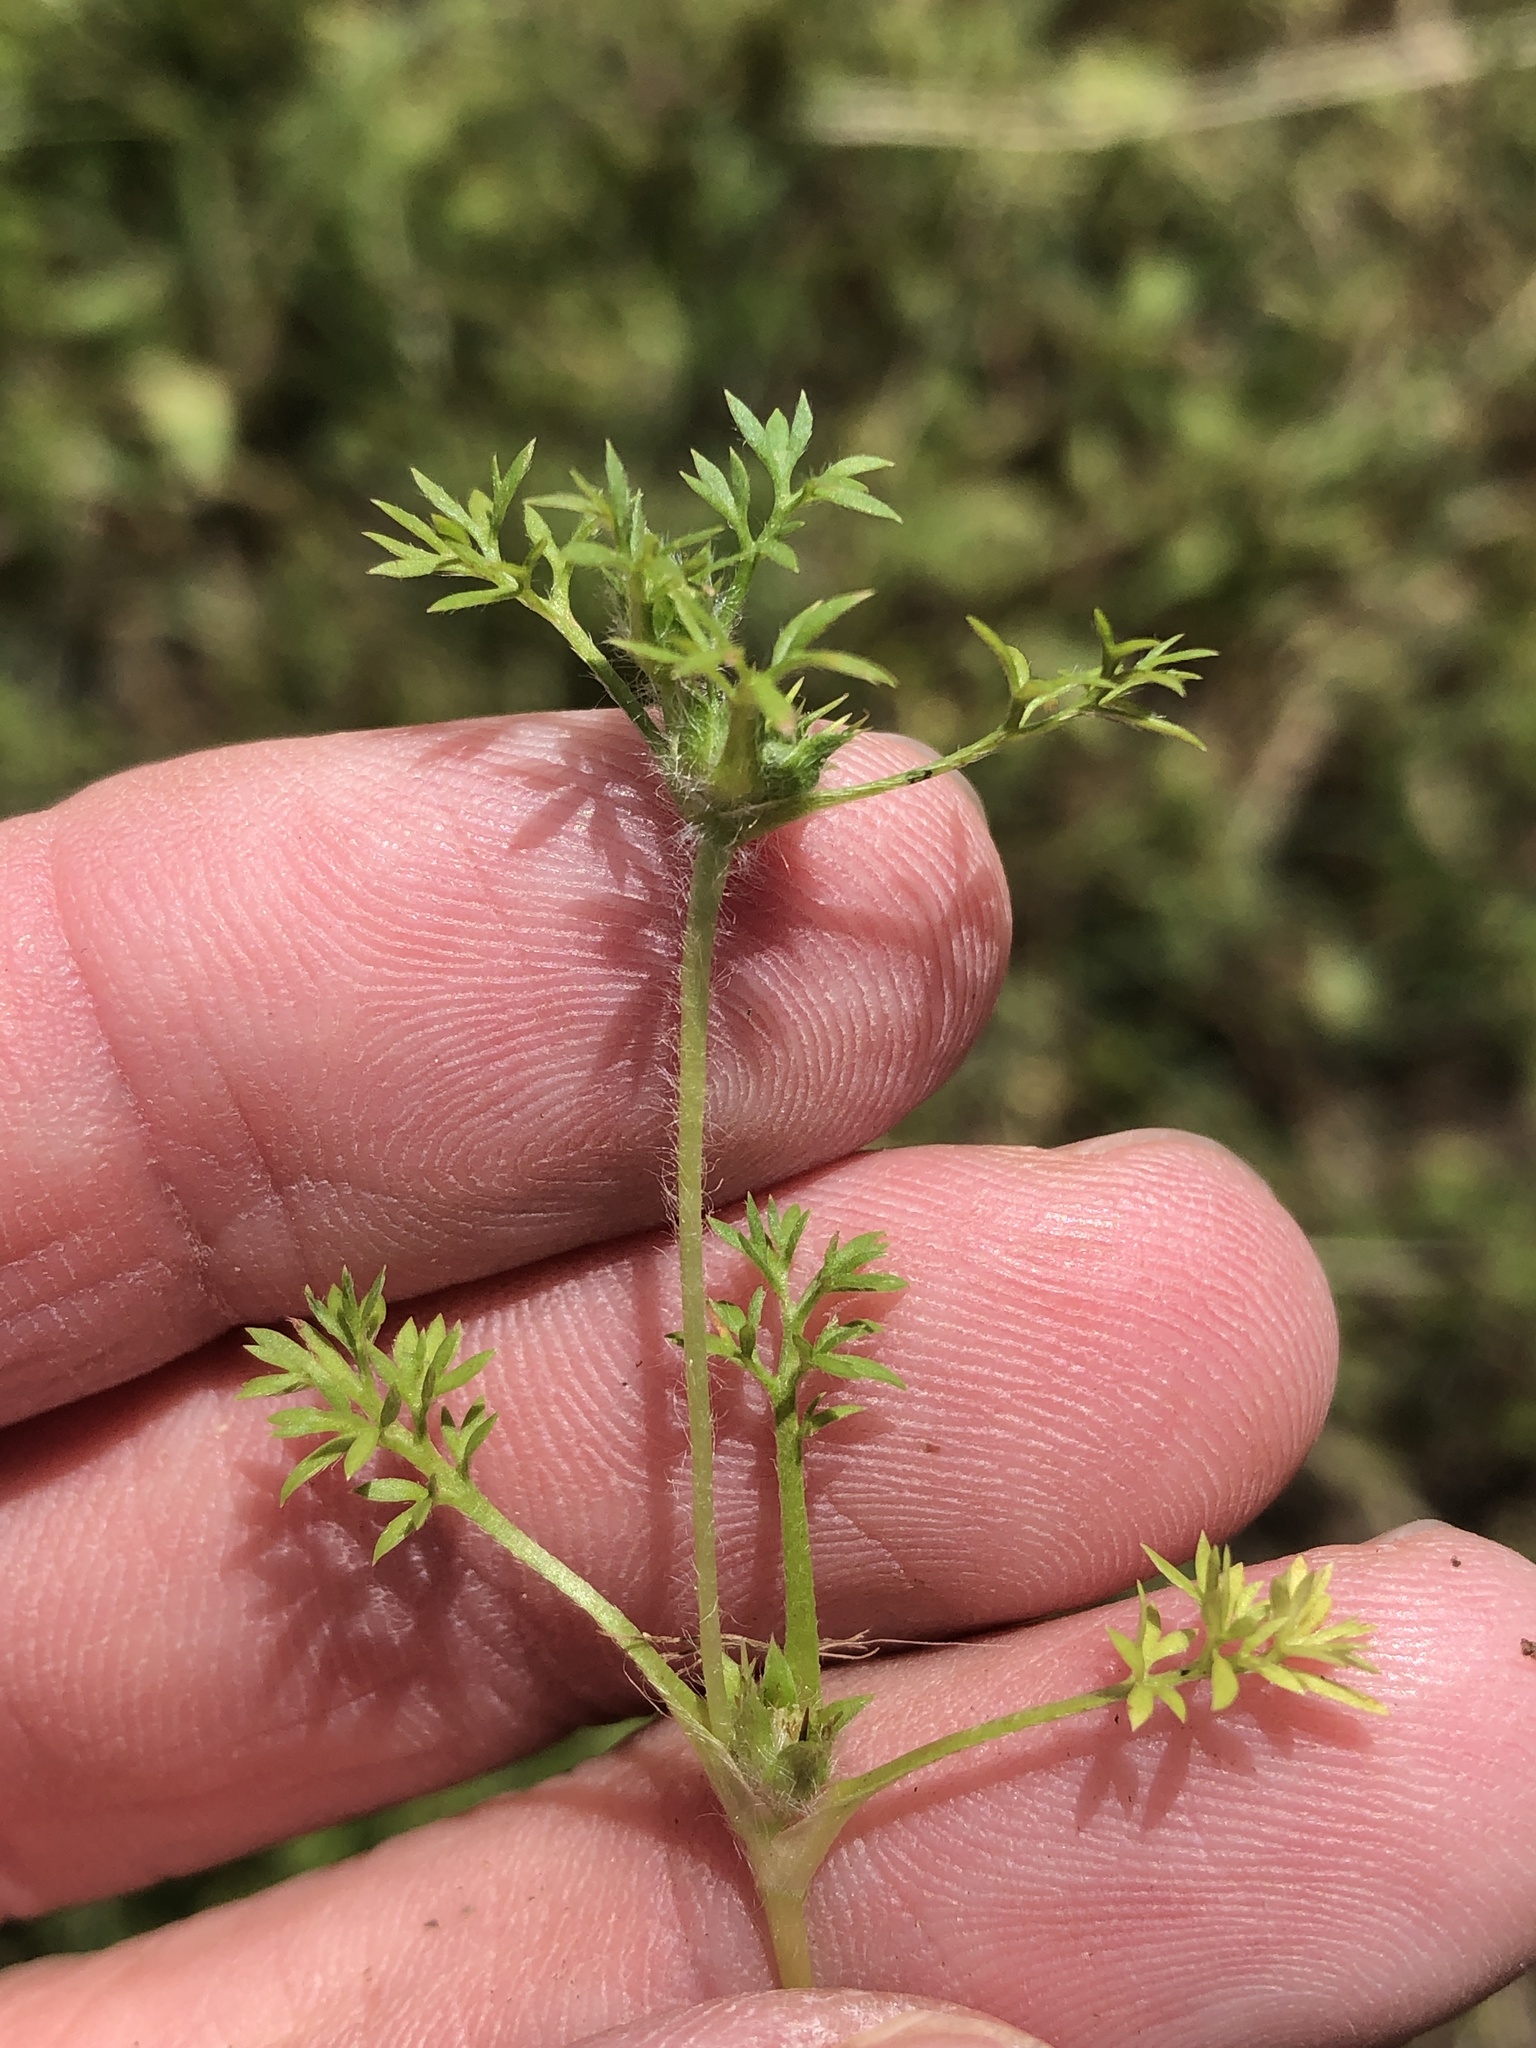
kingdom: Plantae
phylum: Tracheophyta
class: Magnoliopsida
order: Asterales
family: Asteraceae
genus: Soliva
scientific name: Soliva sessilis
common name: Field burrweed
